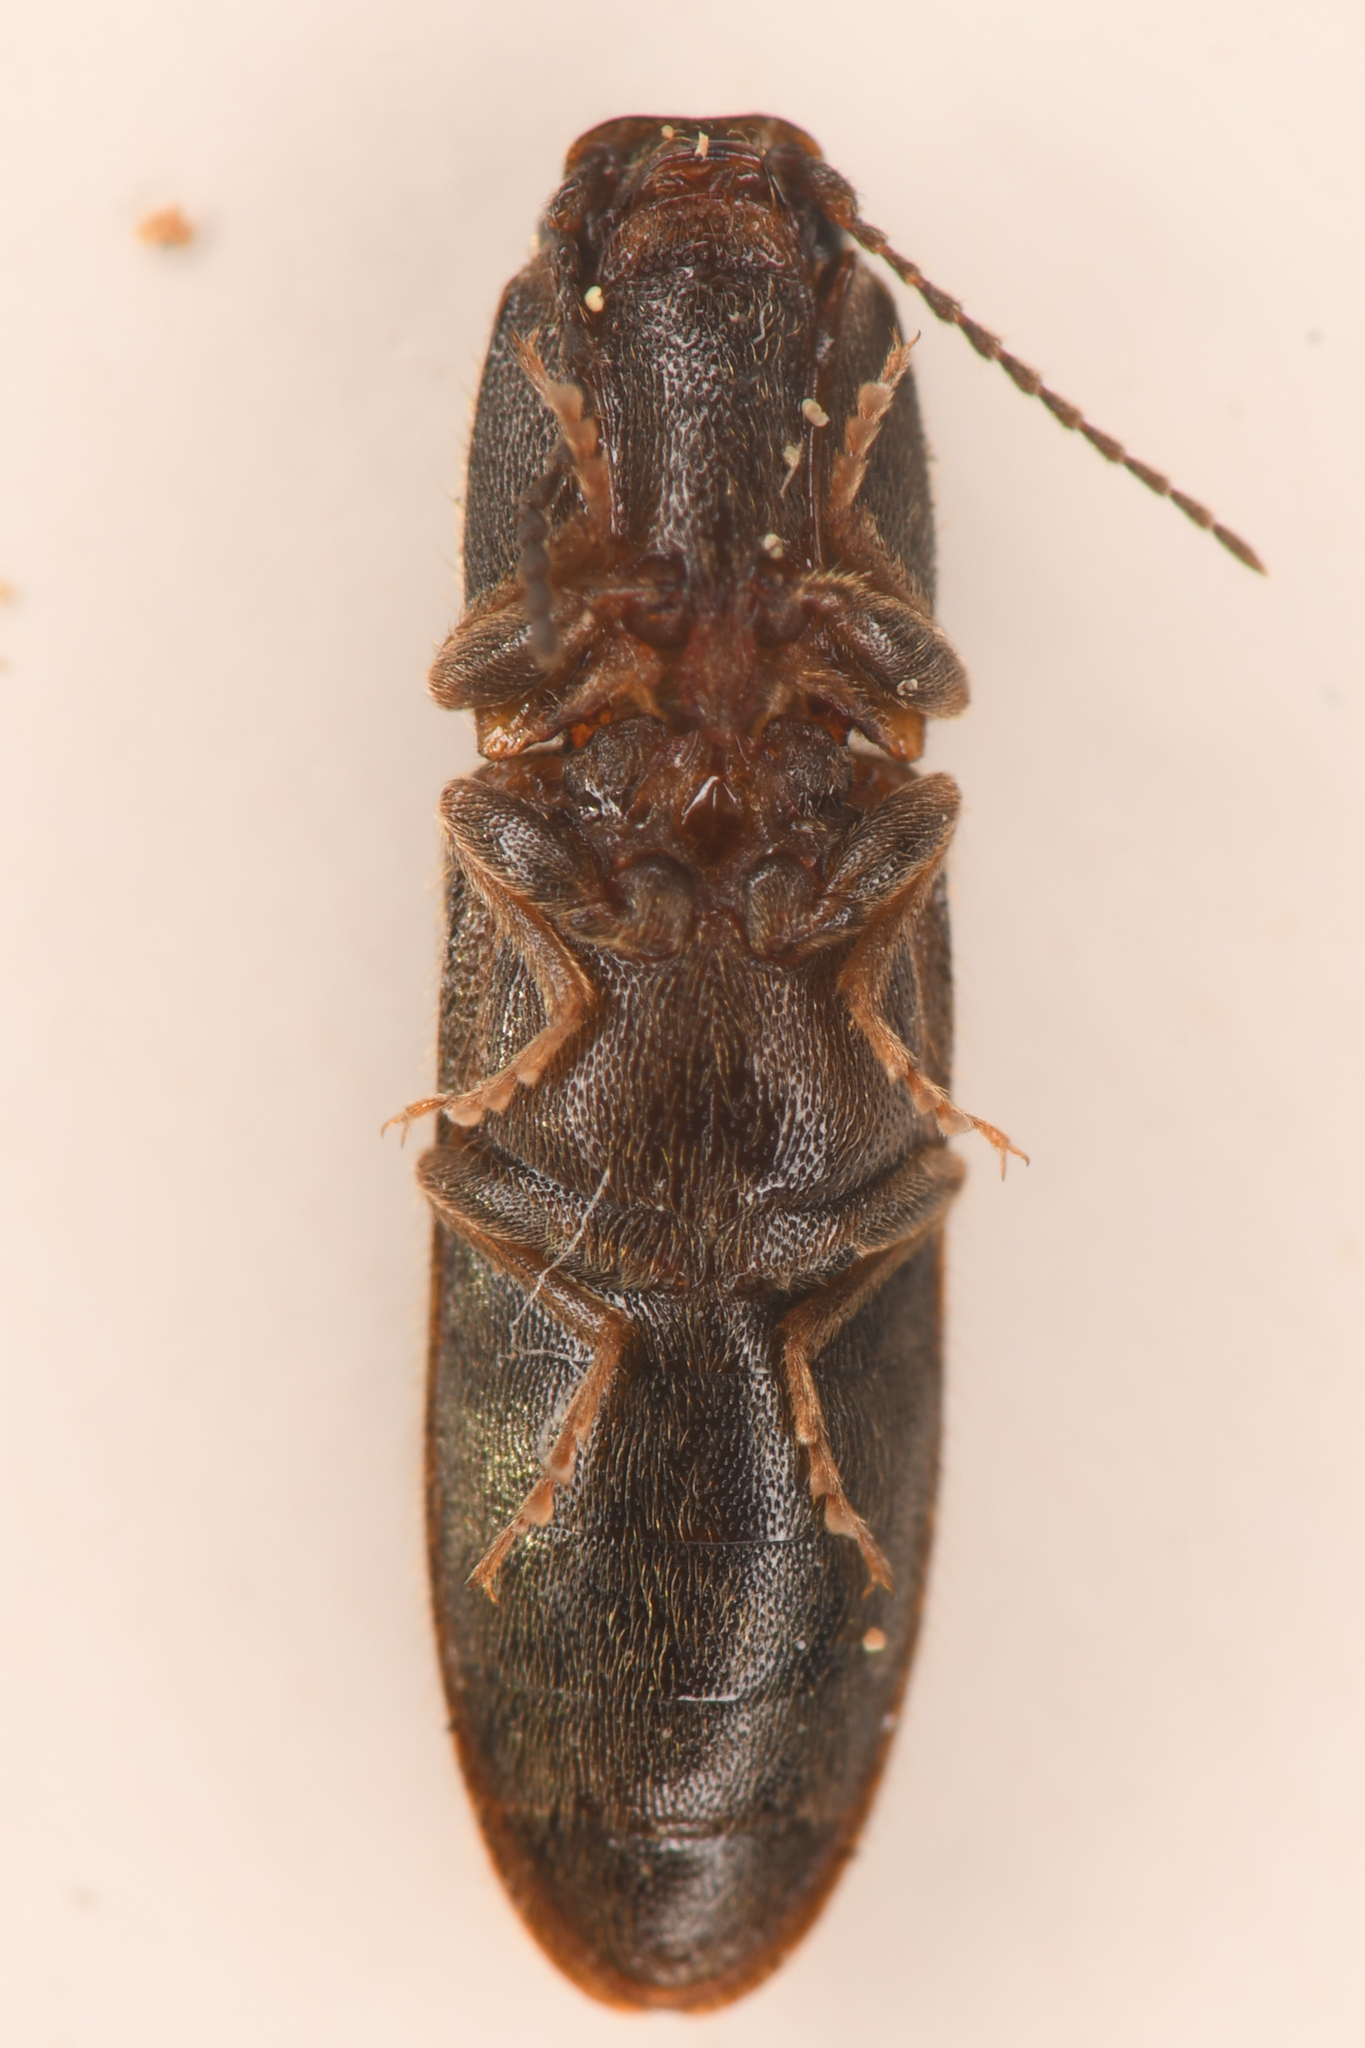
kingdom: Animalia
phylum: Arthropoda
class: Insecta
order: Coleoptera
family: Elateridae
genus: Limonius
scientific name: Limonius
